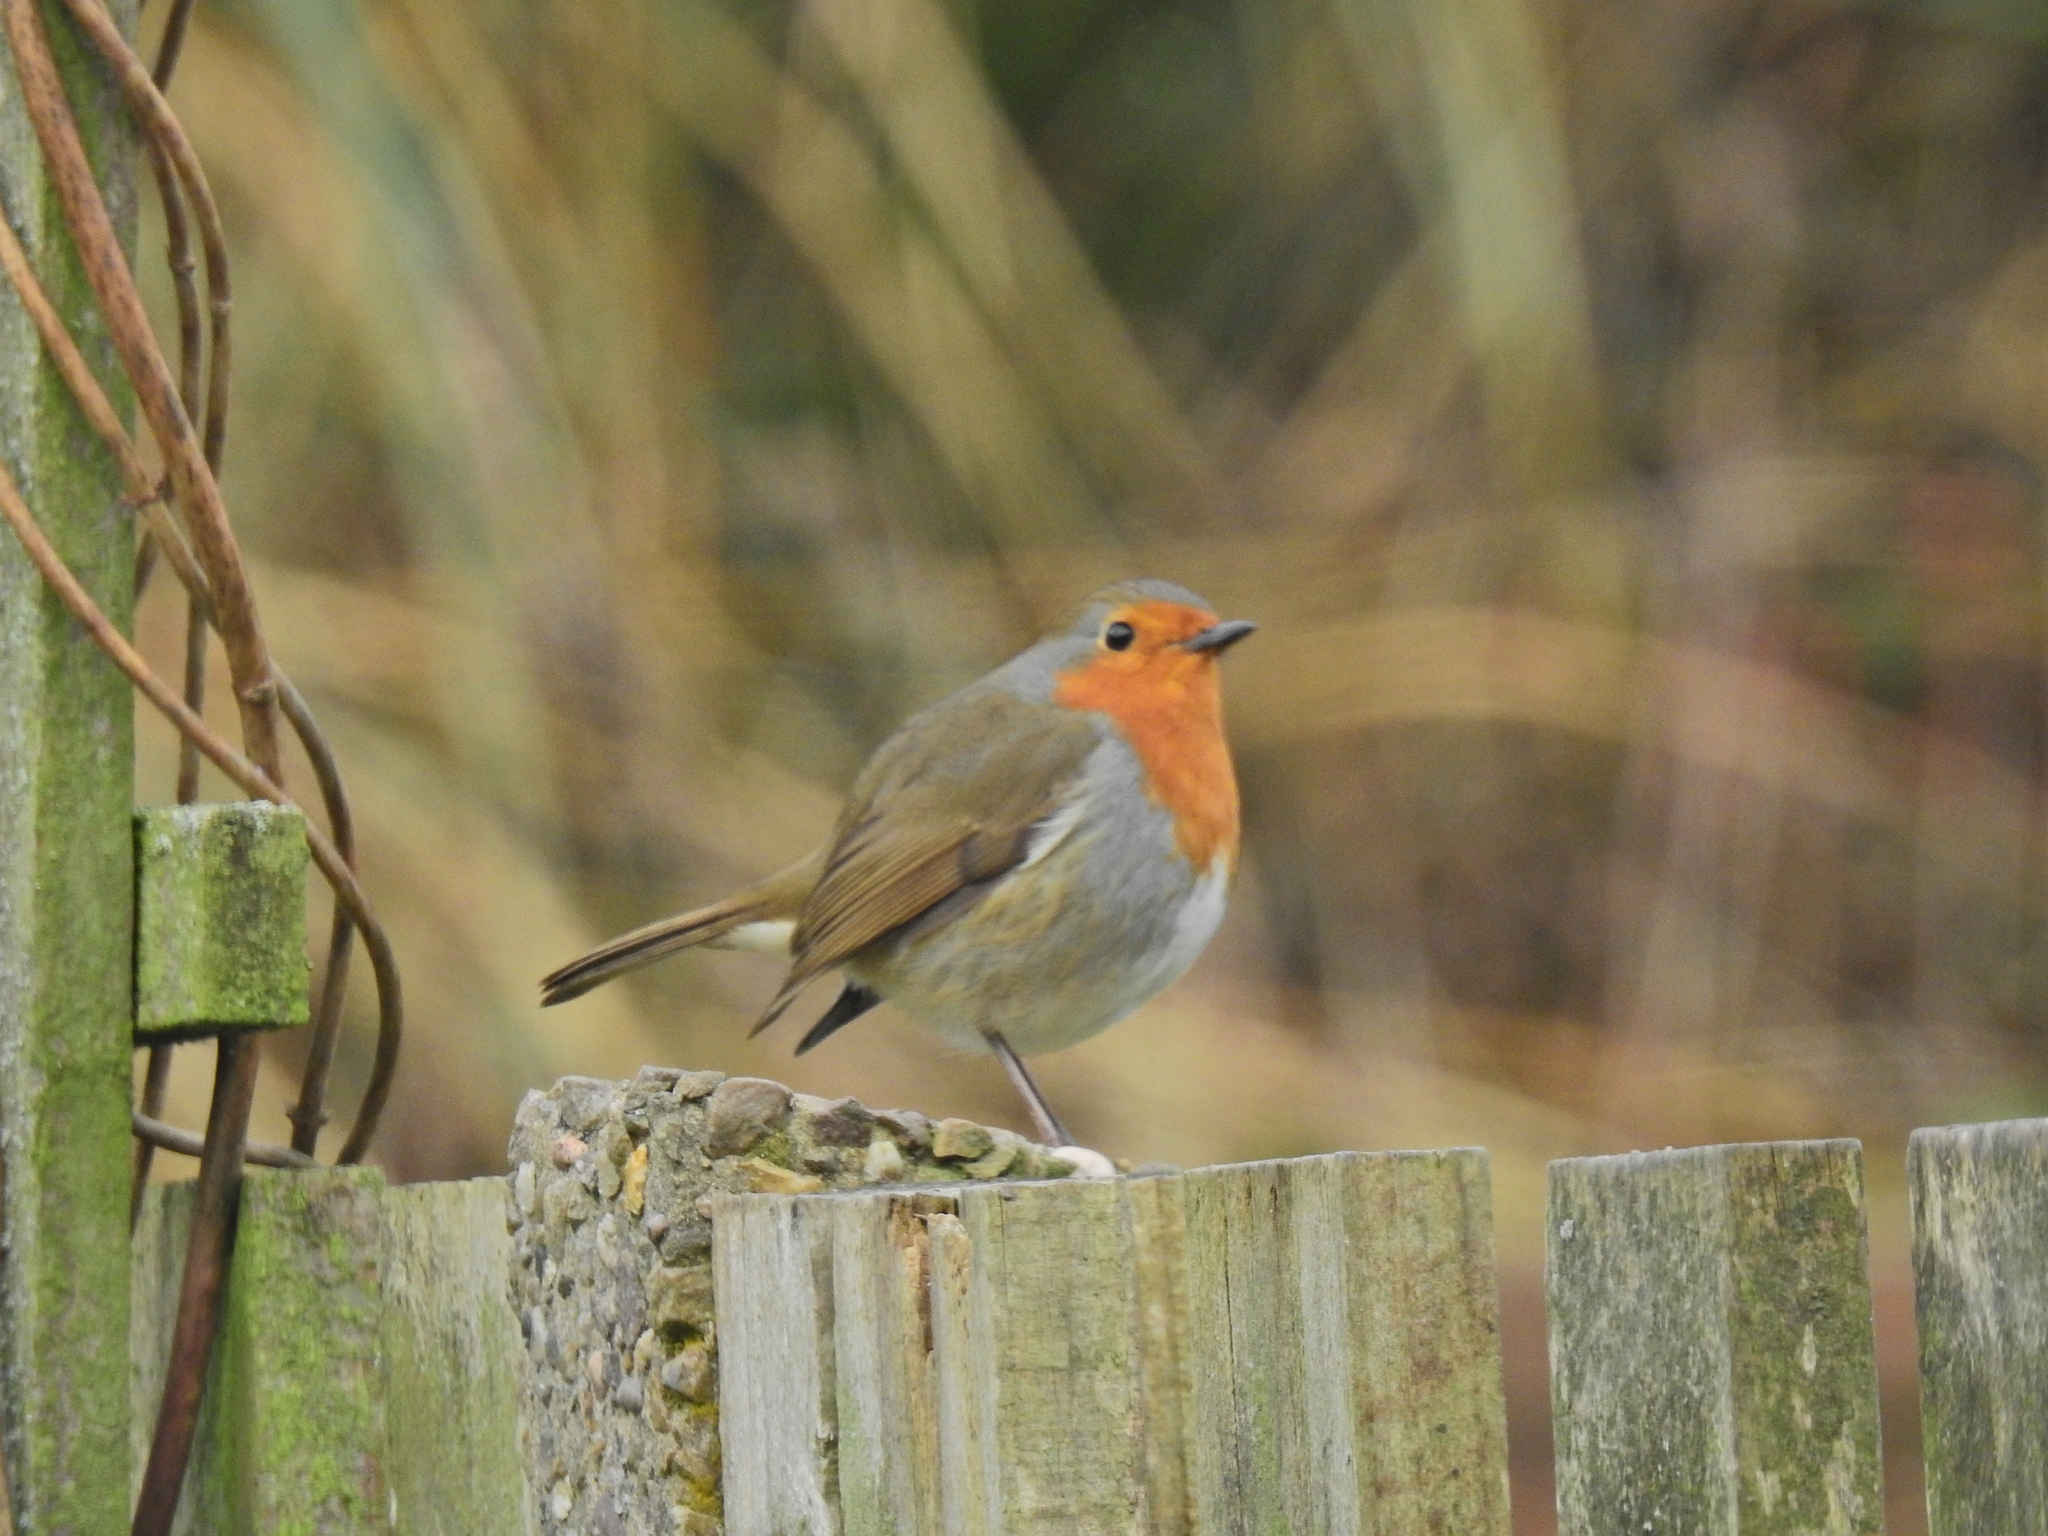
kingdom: Animalia
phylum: Chordata
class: Aves
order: Passeriformes
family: Muscicapidae
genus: Erithacus
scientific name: Erithacus rubecula
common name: European robin
